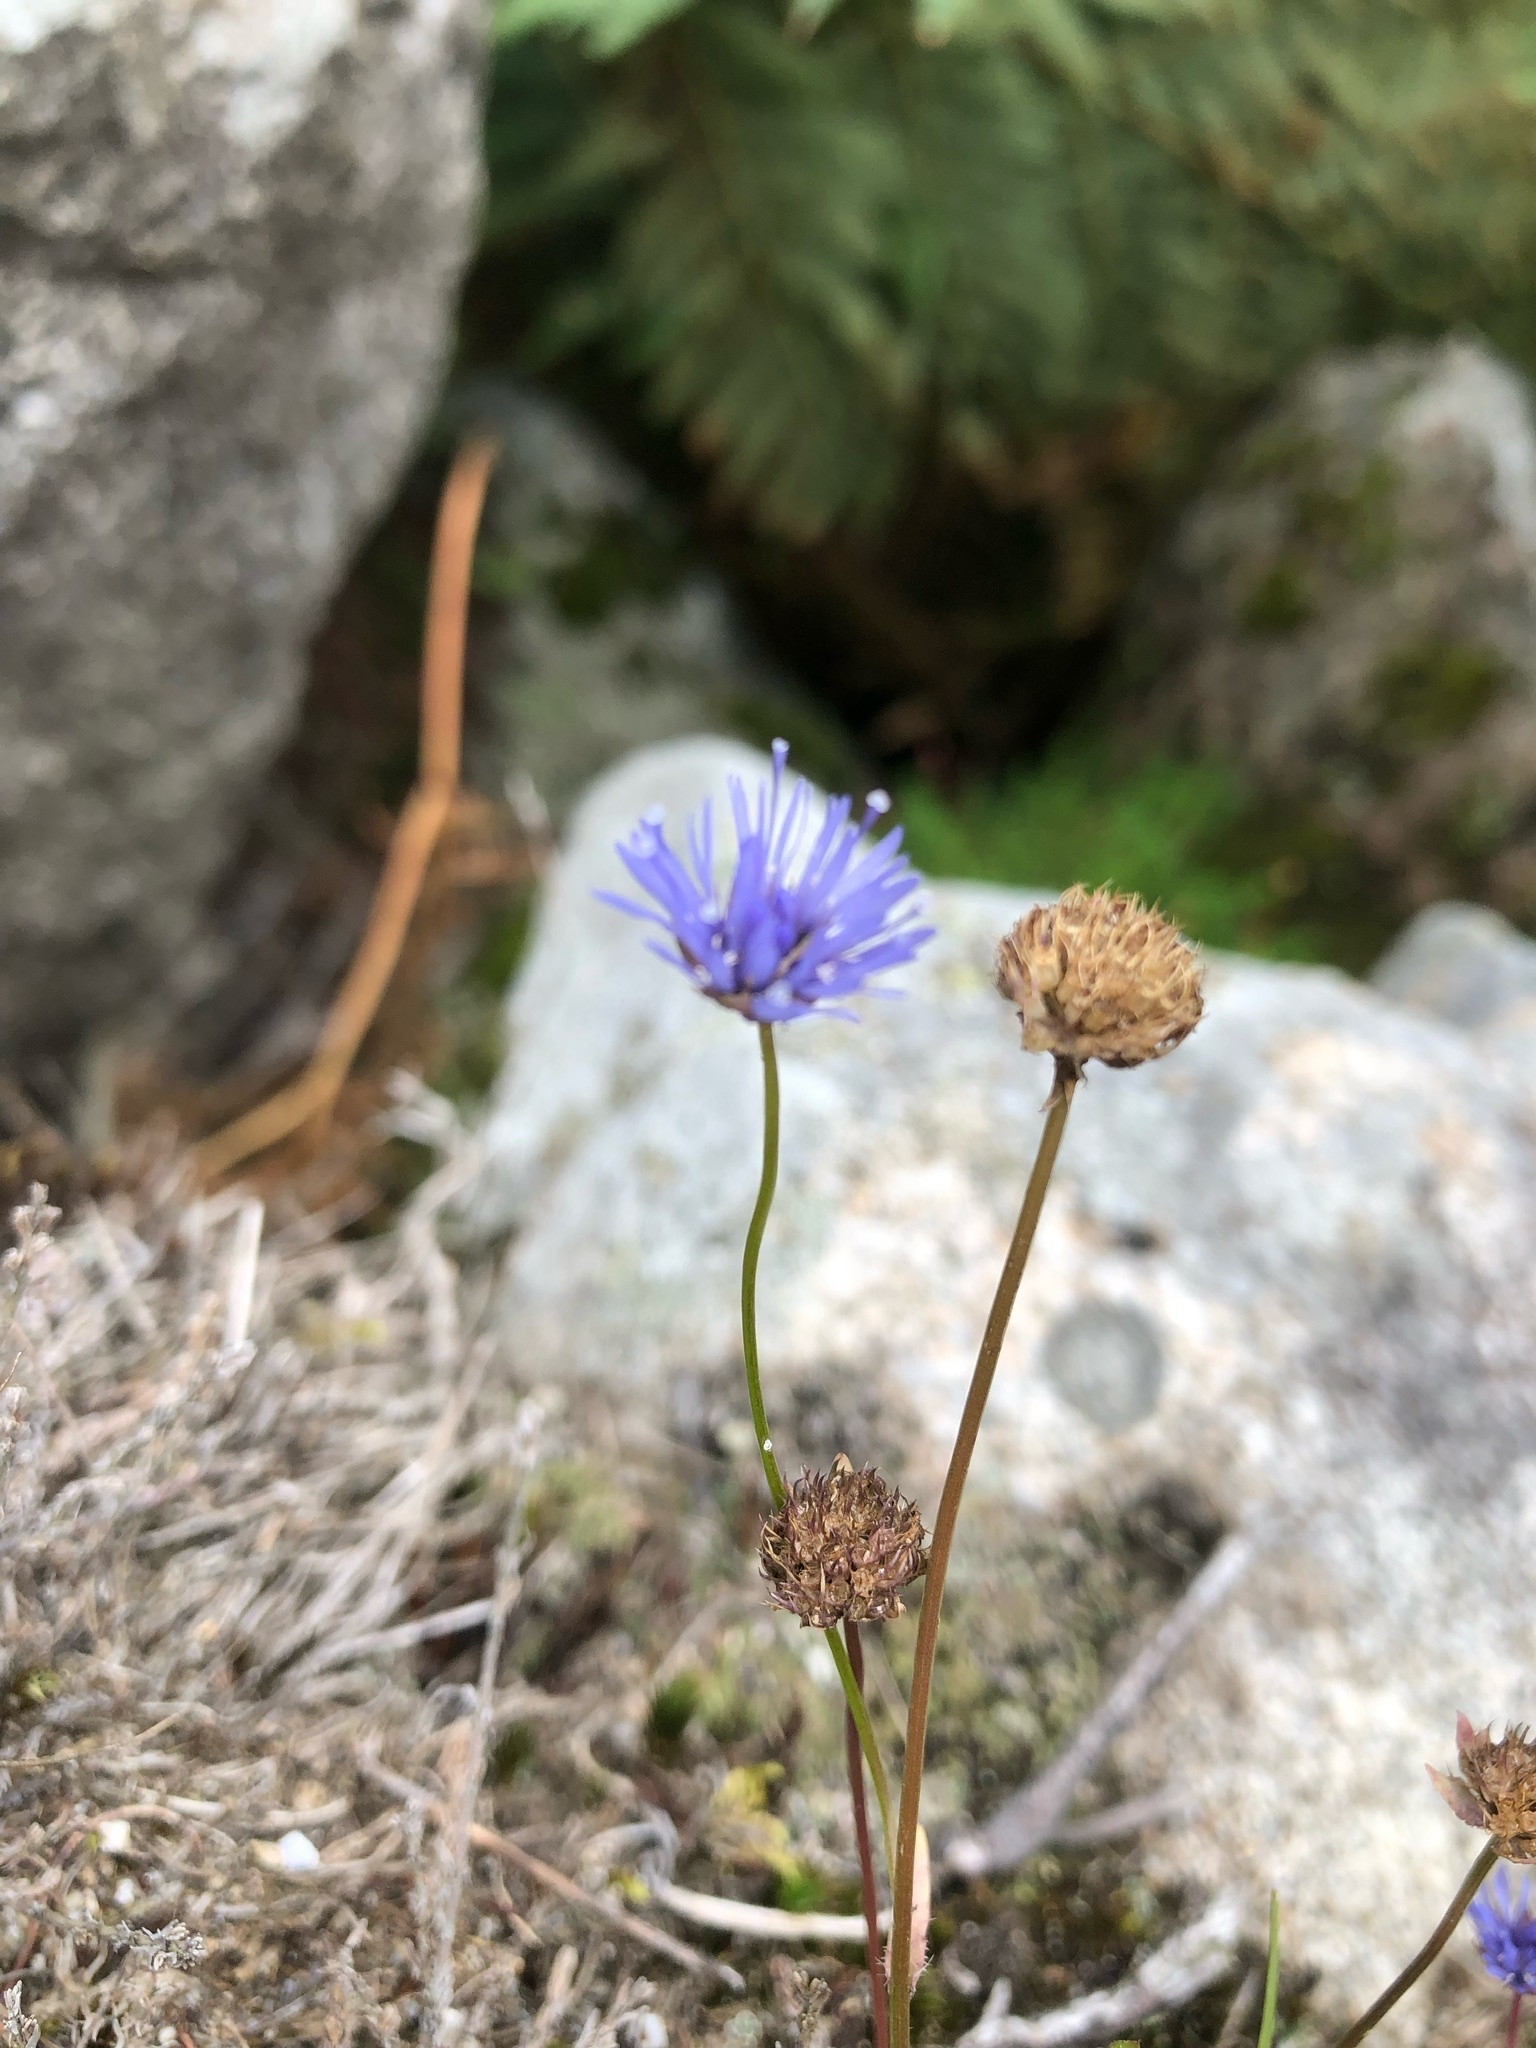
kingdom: Plantae
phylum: Tracheophyta
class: Magnoliopsida
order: Asterales
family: Campanulaceae
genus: Jasione
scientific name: Jasione montana
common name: Sheep's-bit
